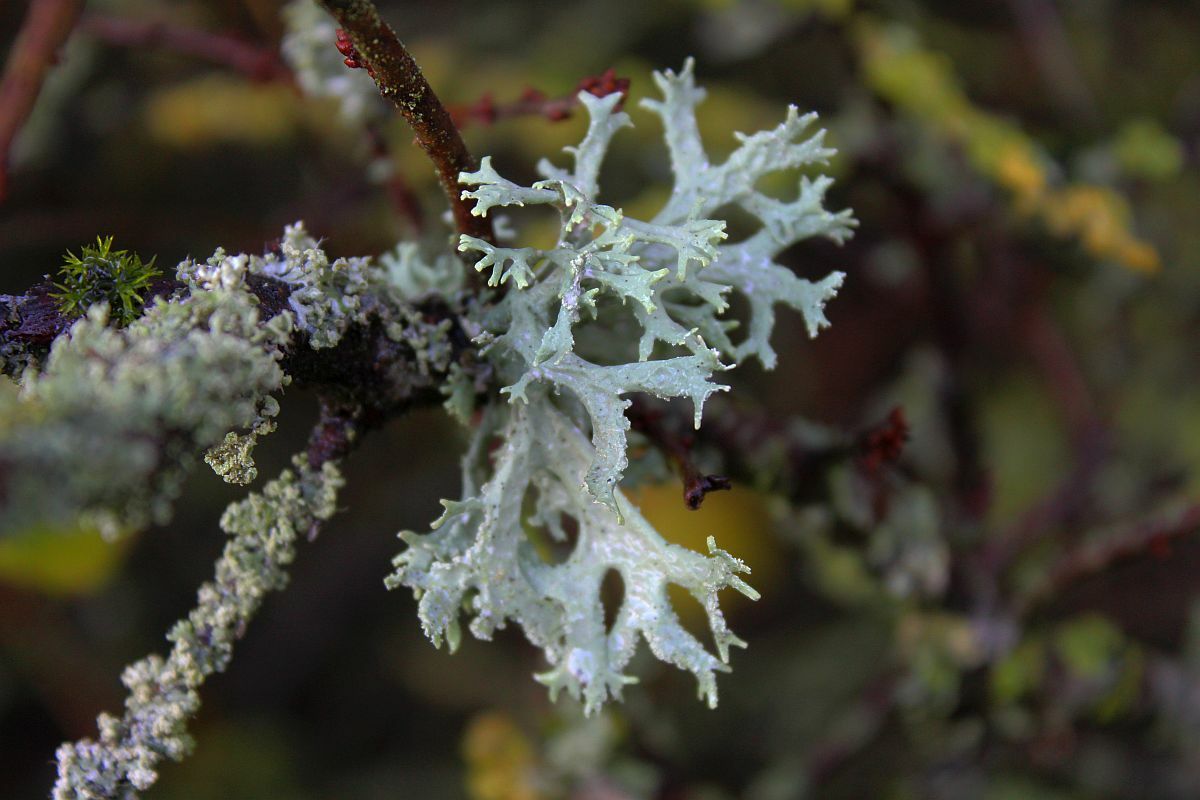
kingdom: Fungi
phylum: Ascomycota
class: Lecanoromycetes
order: Lecanorales
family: Parmeliaceae
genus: Evernia
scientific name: Evernia prunastri
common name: Oak moss
